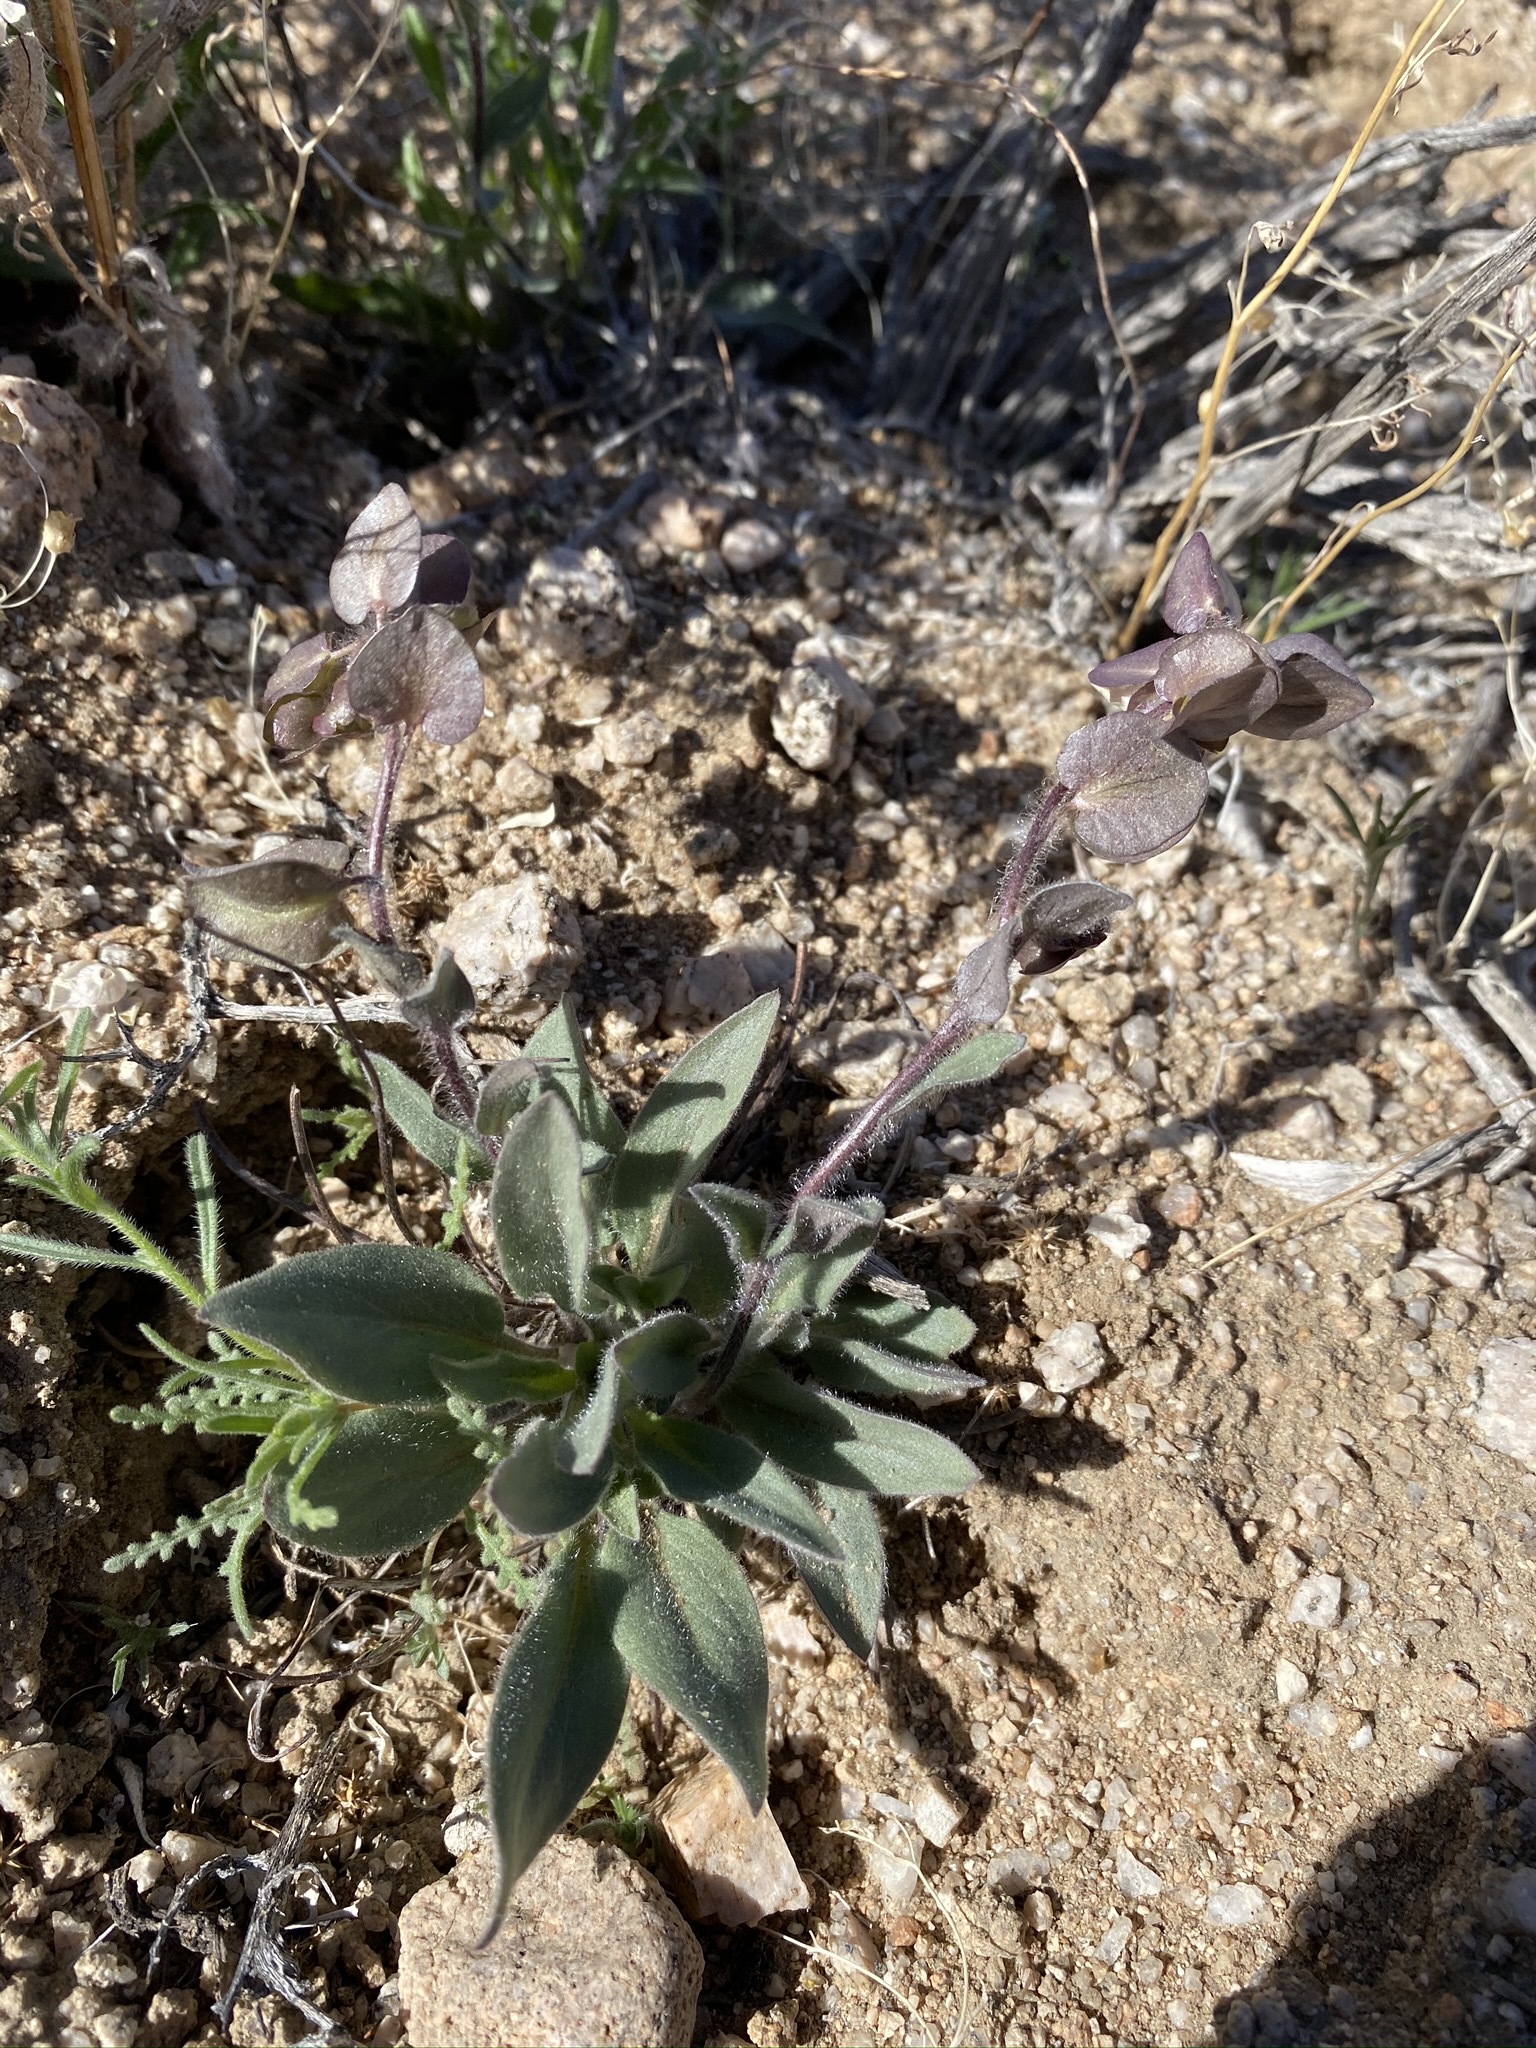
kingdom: Plantae
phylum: Tracheophyta
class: Magnoliopsida
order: Boraginales
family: Hydrophyllaceae
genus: Tricardia
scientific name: Tricardia watsonii
